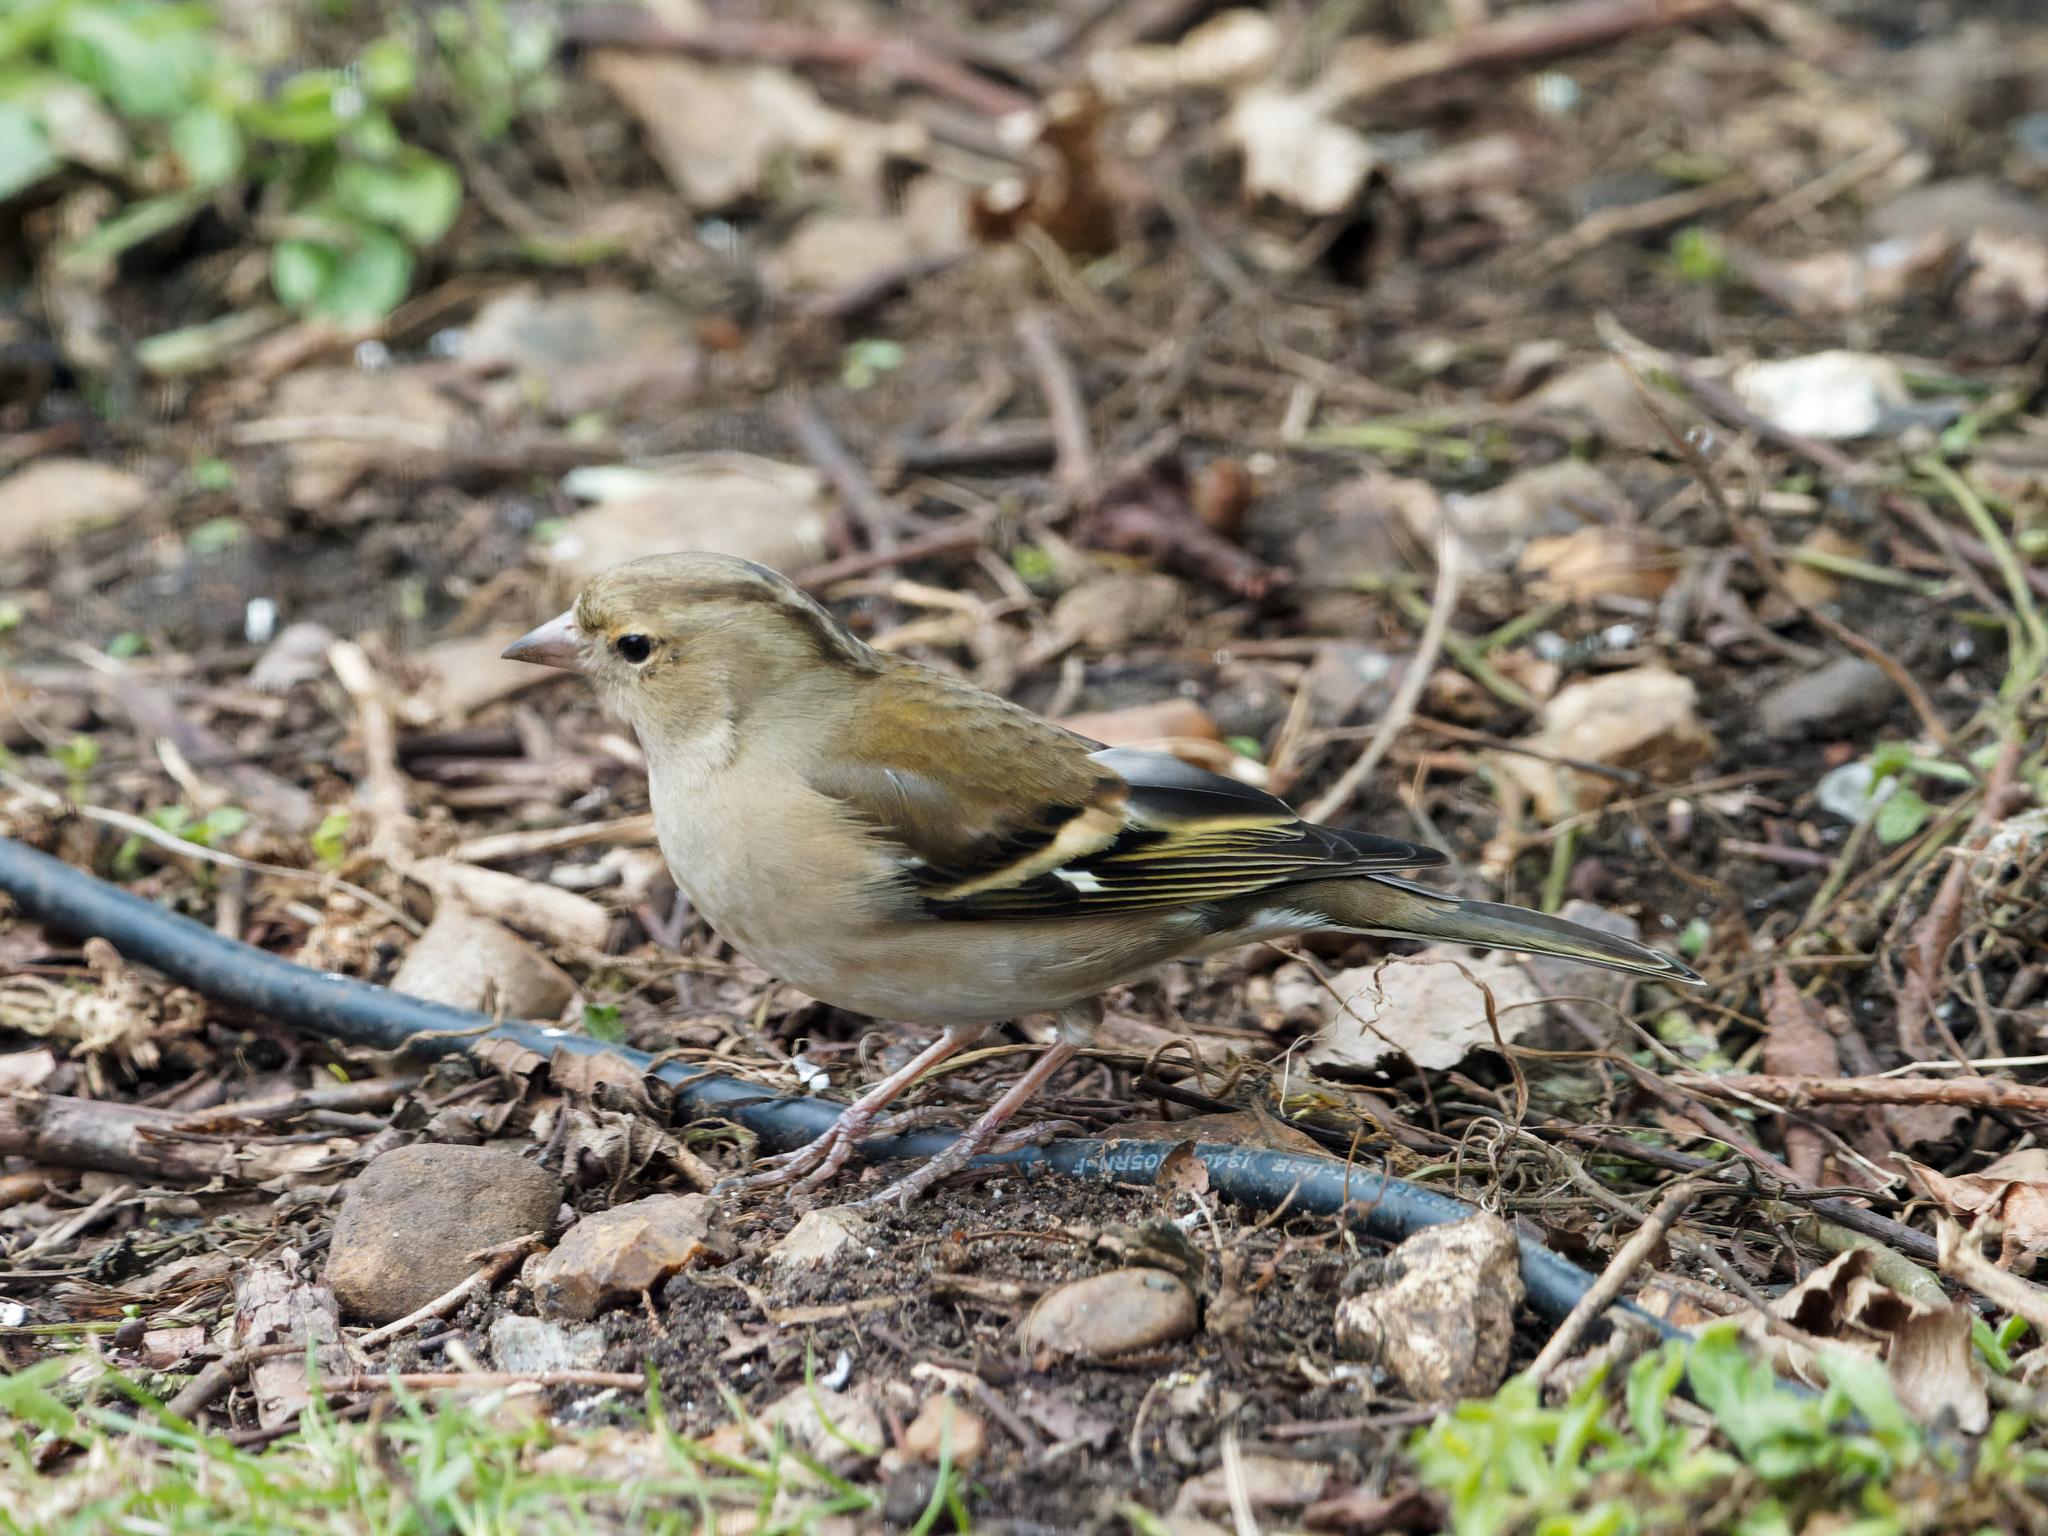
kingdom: Animalia
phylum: Chordata
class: Aves
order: Galliformes
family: Phasianidae
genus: Alectoris
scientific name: Alectoris rufa
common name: Red-legged partridge
